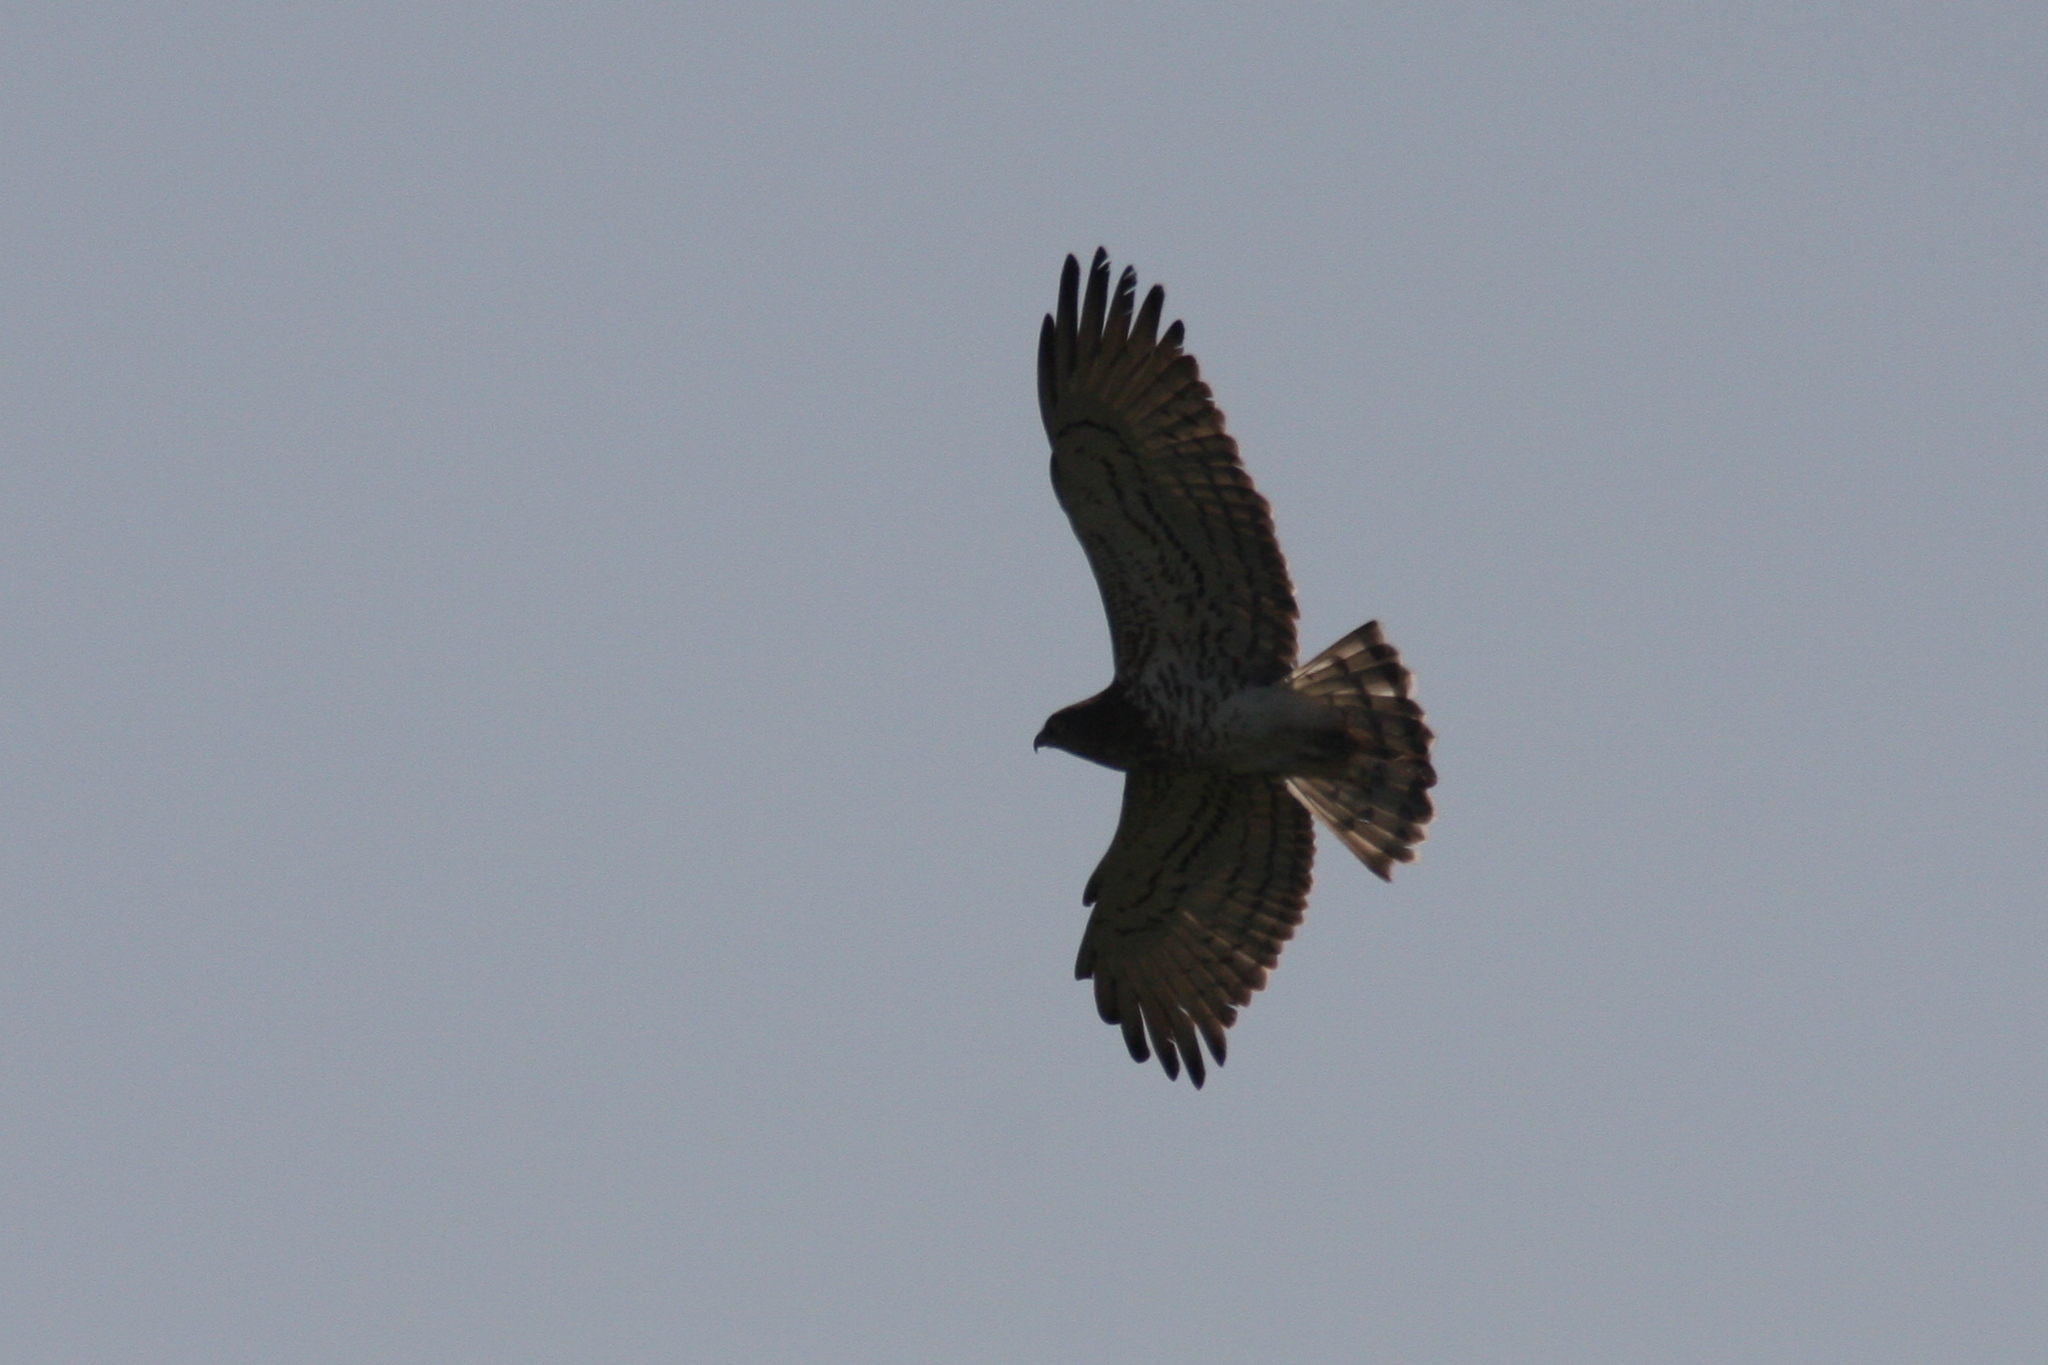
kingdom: Animalia
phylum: Chordata
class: Aves
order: Accipitriformes
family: Accipitridae
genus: Circaetus
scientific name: Circaetus gallicus
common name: Short-toed snake eagle
